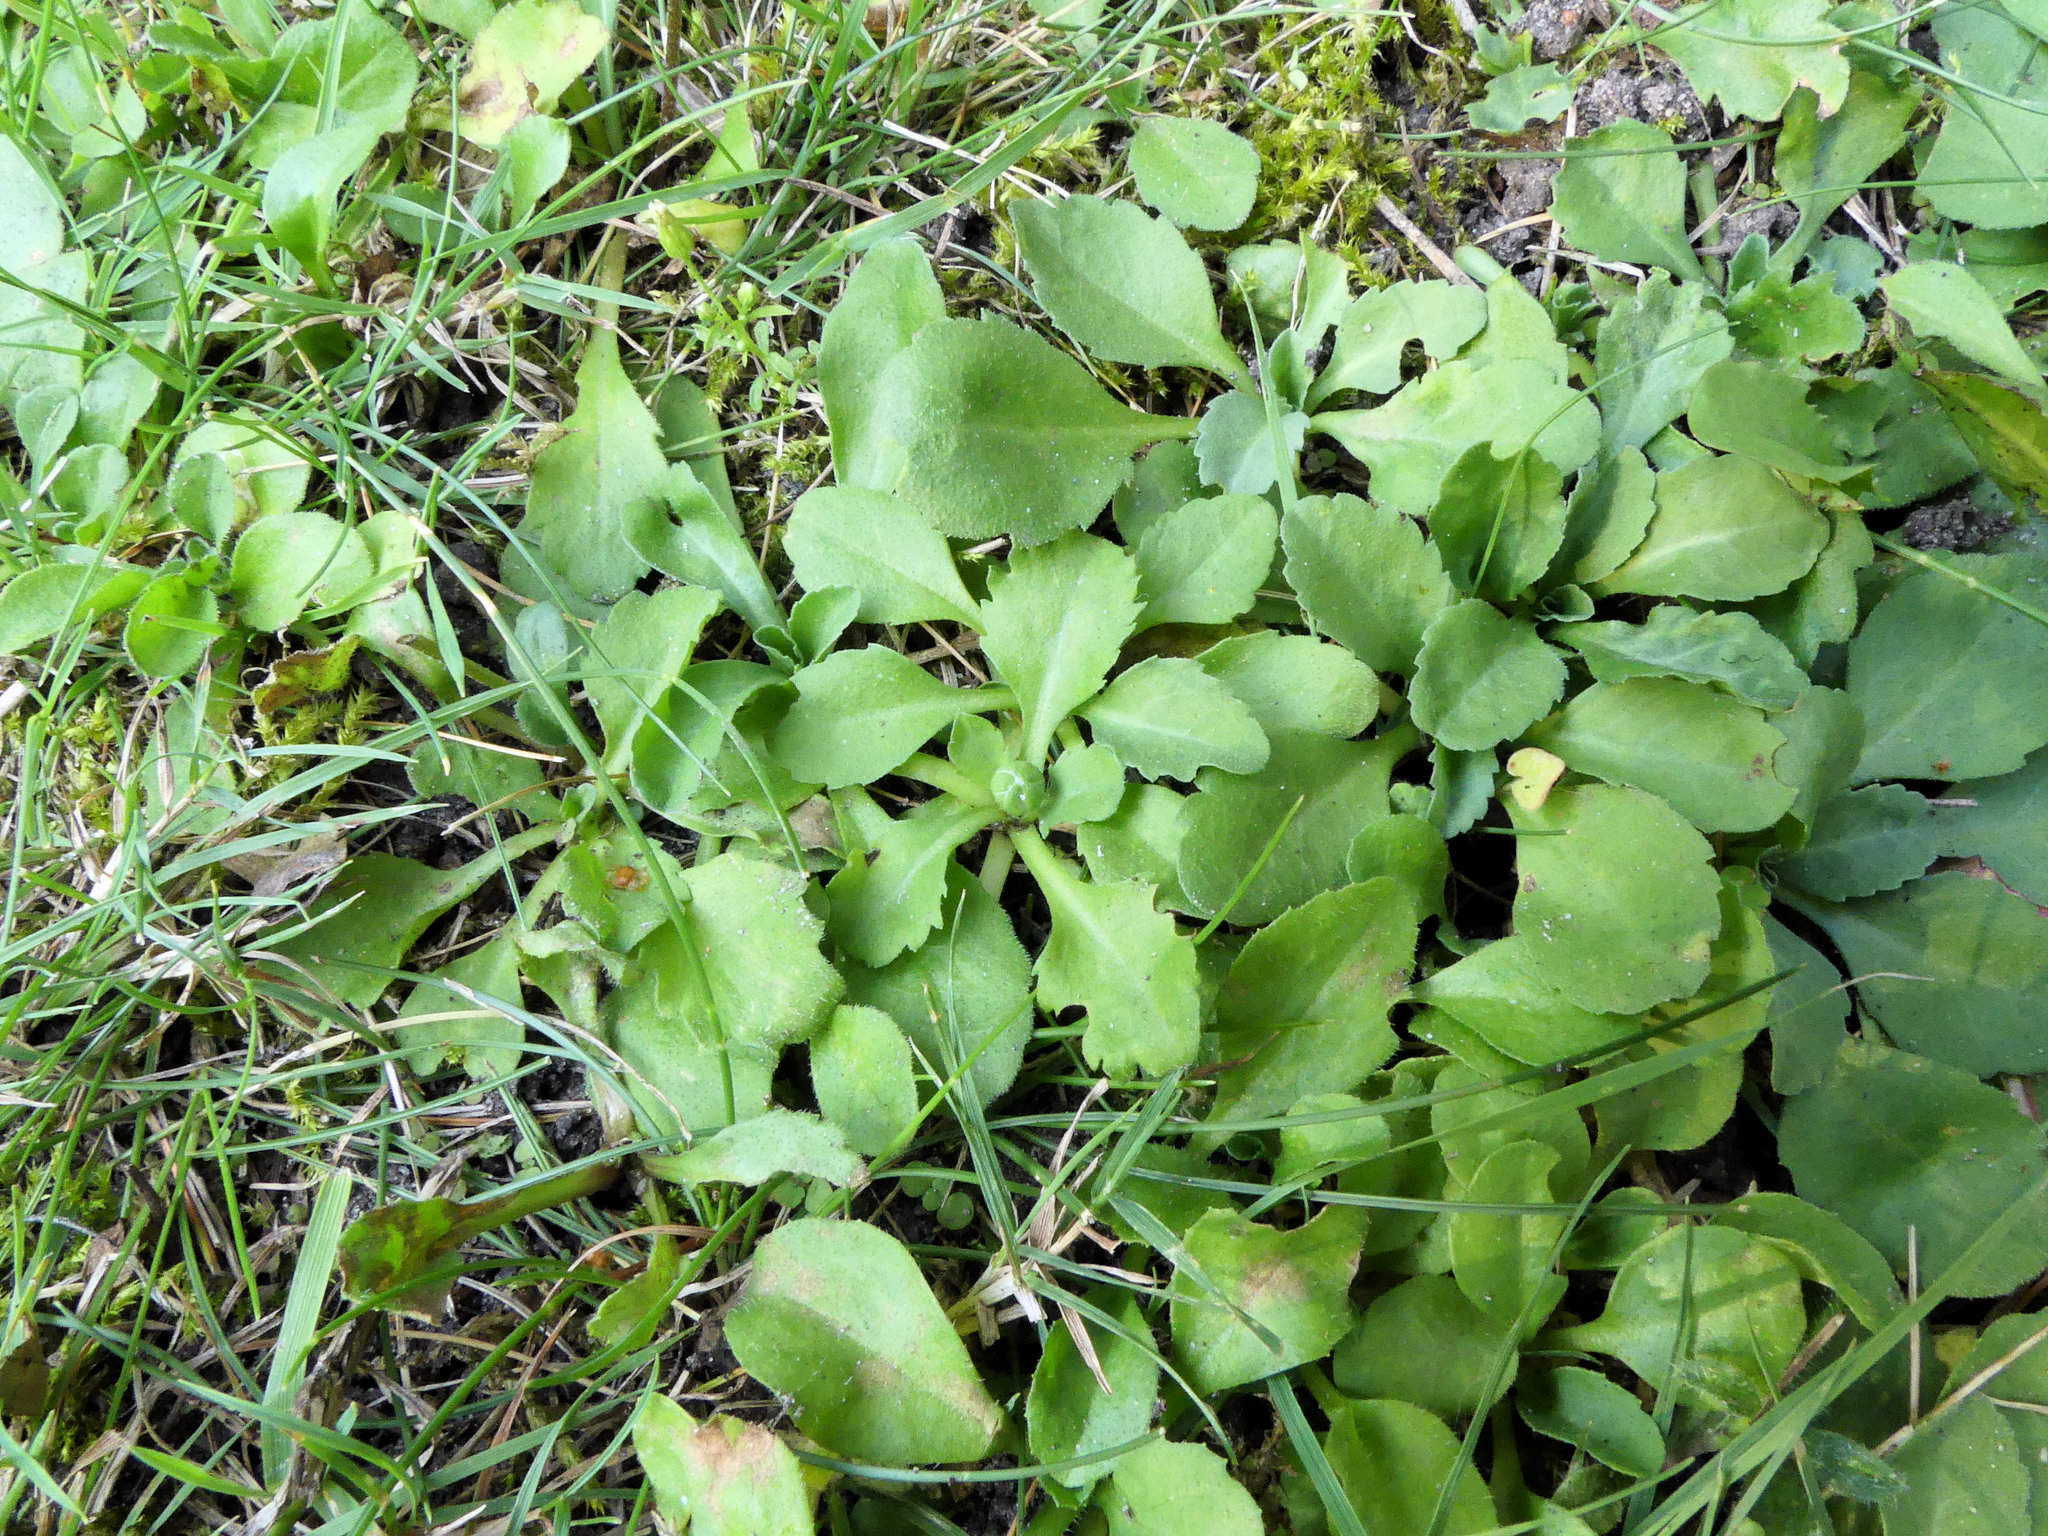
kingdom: Plantae
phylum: Tracheophyta
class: Magnoliopsida
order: Asterales
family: Asteraceae
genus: Bellis
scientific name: Bellis perennis
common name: Lawndaisy
